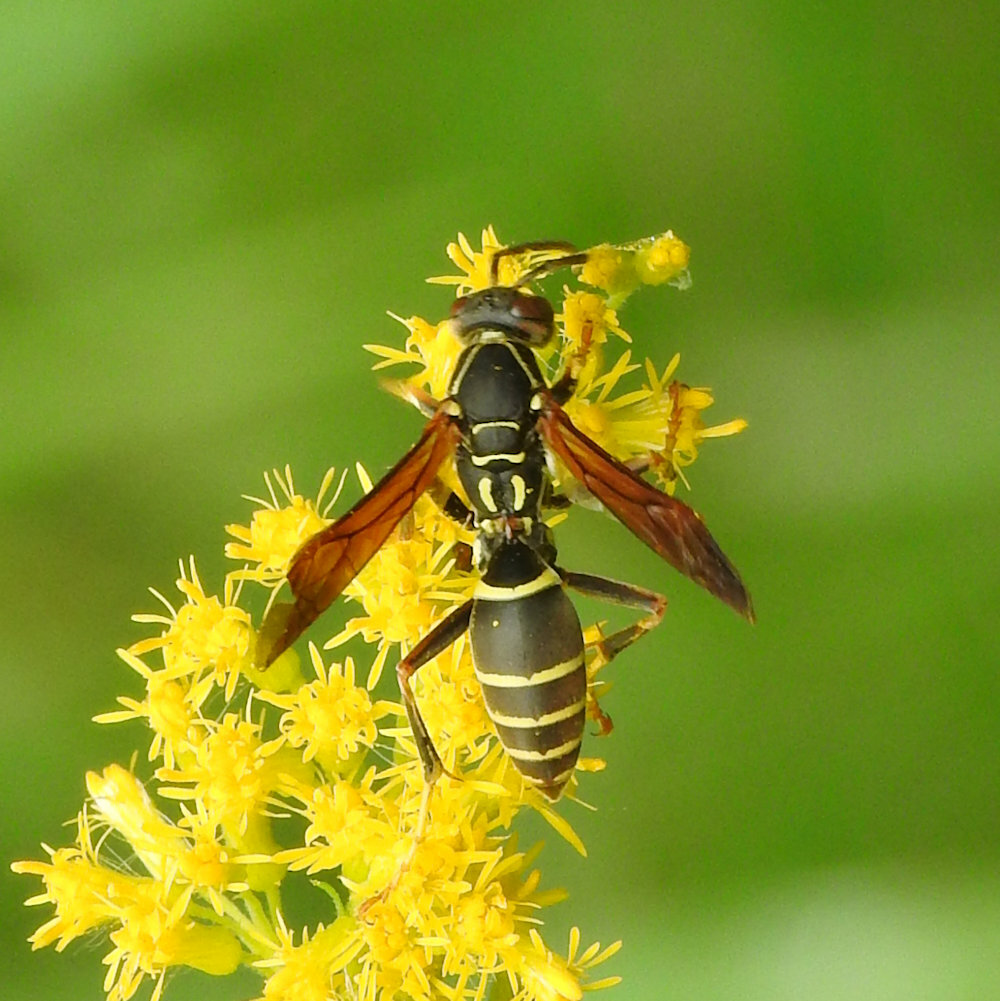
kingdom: Animalia
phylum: Arthropoda
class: Insecta
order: Hymenoptera
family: Eumenidae
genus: Polistes
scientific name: Polistes fuscatus
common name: Dark paper wasp
